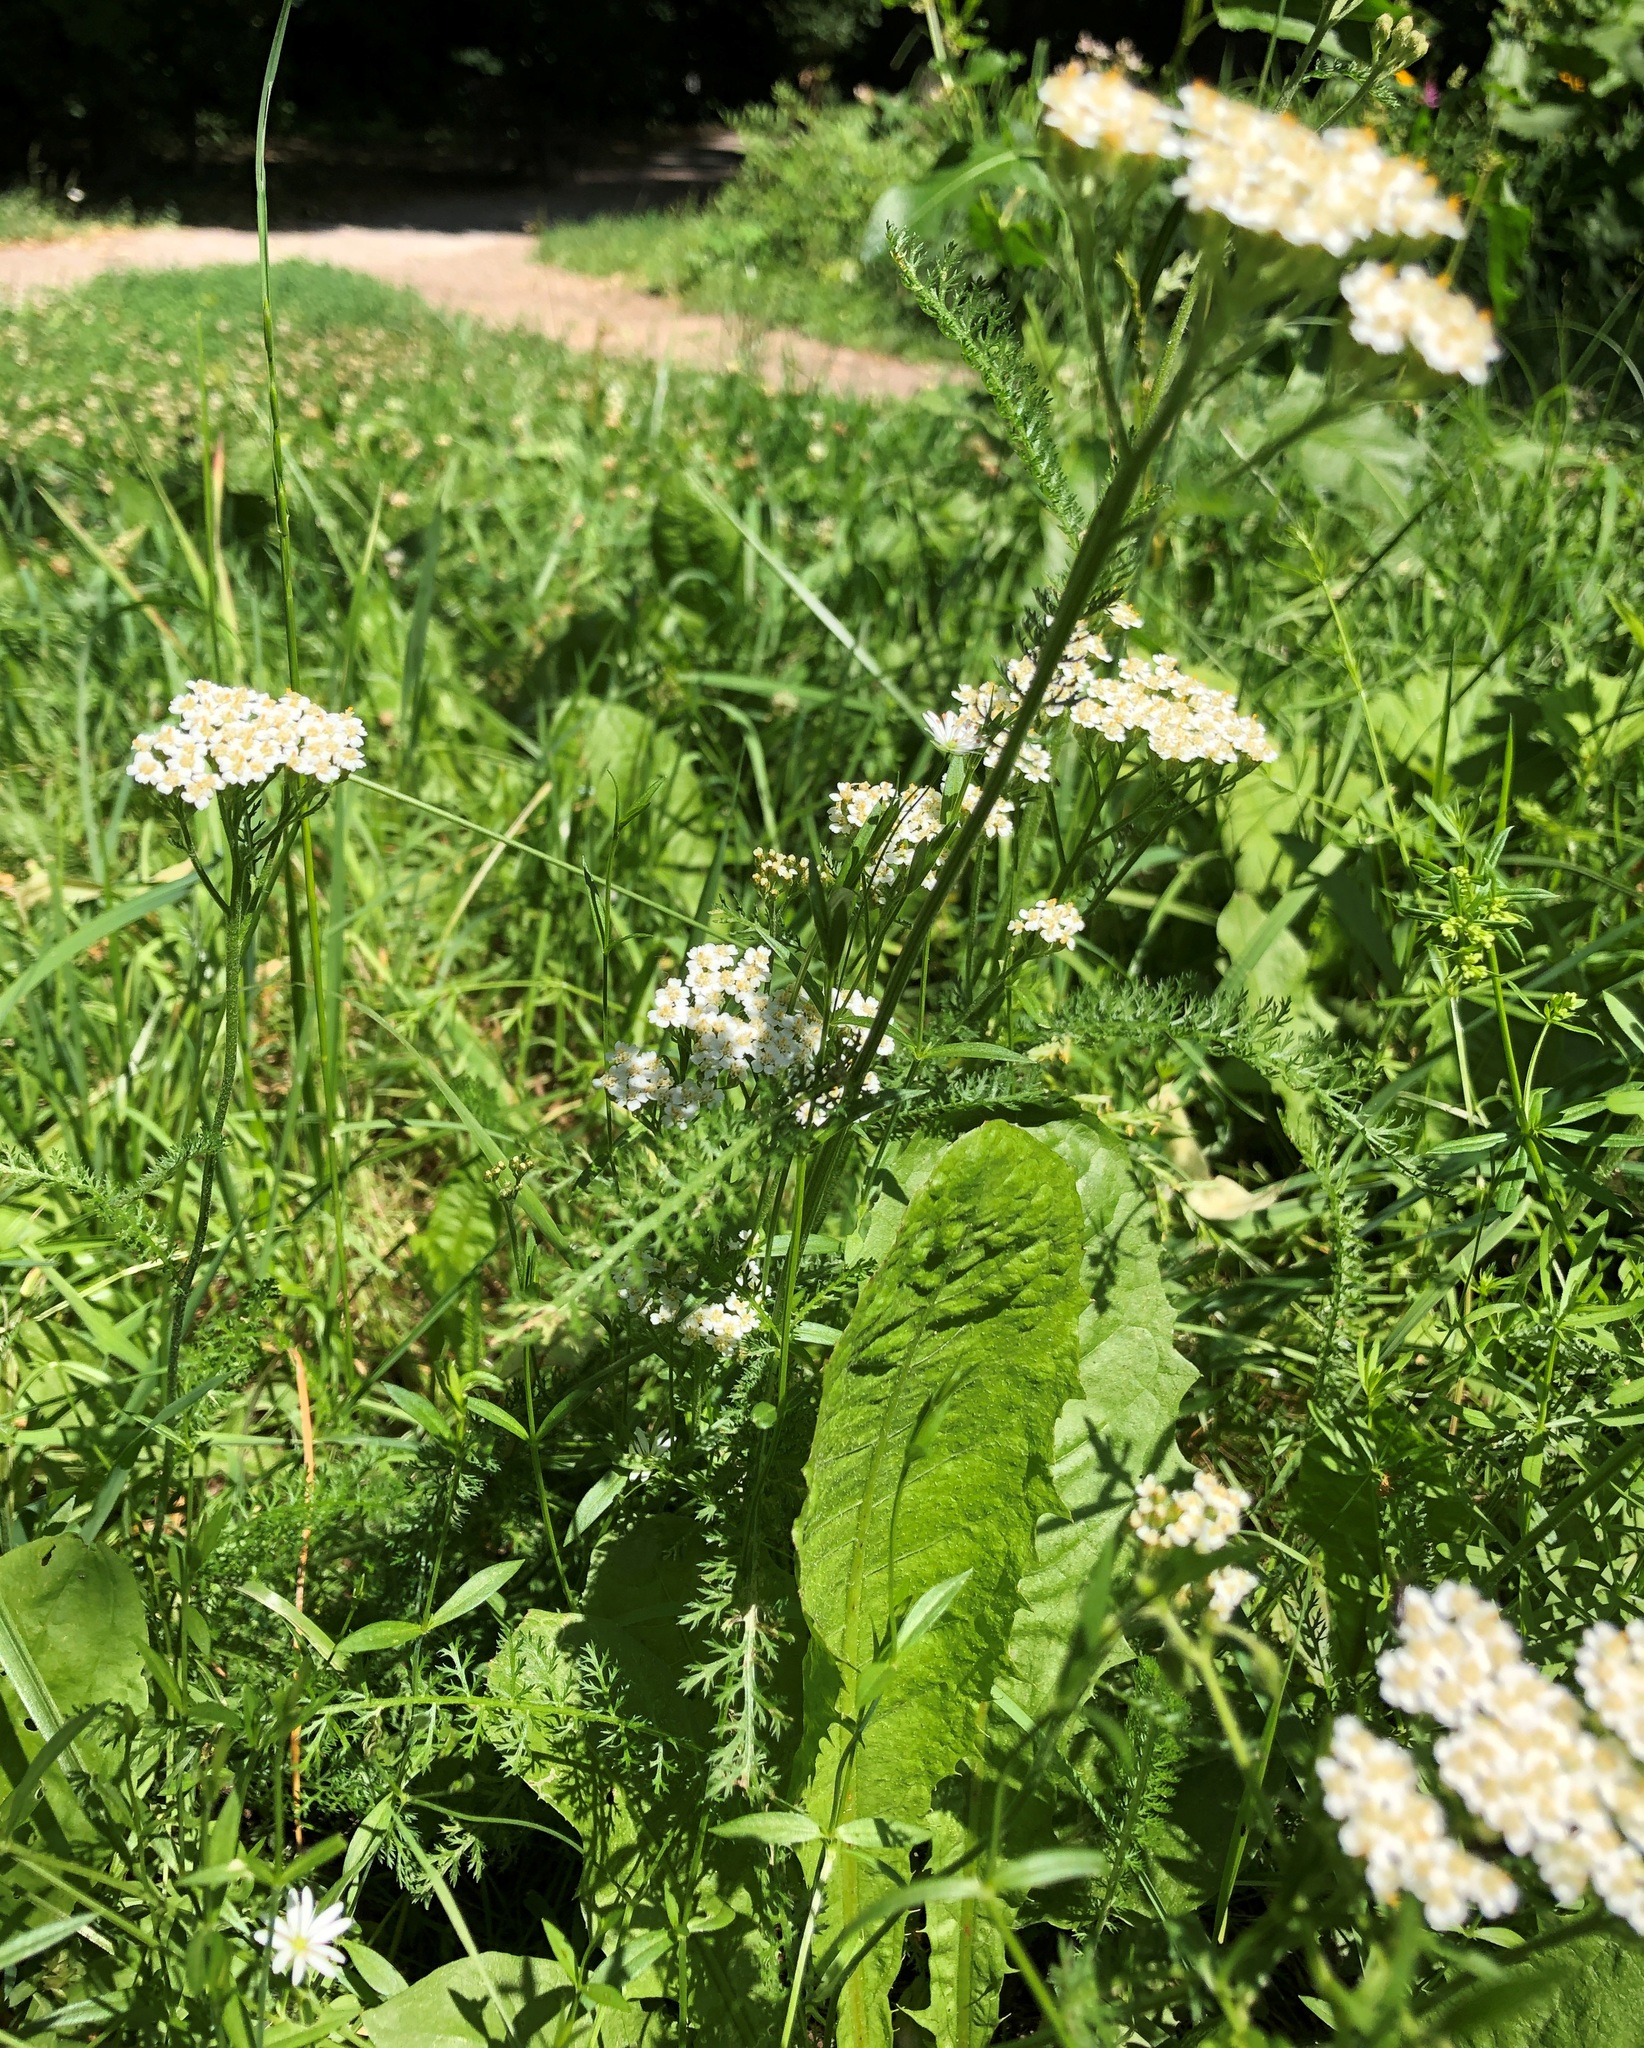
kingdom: Plantae
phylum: Tracheophyta
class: Magnoliopsida
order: Asterales
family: Asteraceae
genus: Achillea
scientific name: Achillea millefolium
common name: Yarrow
